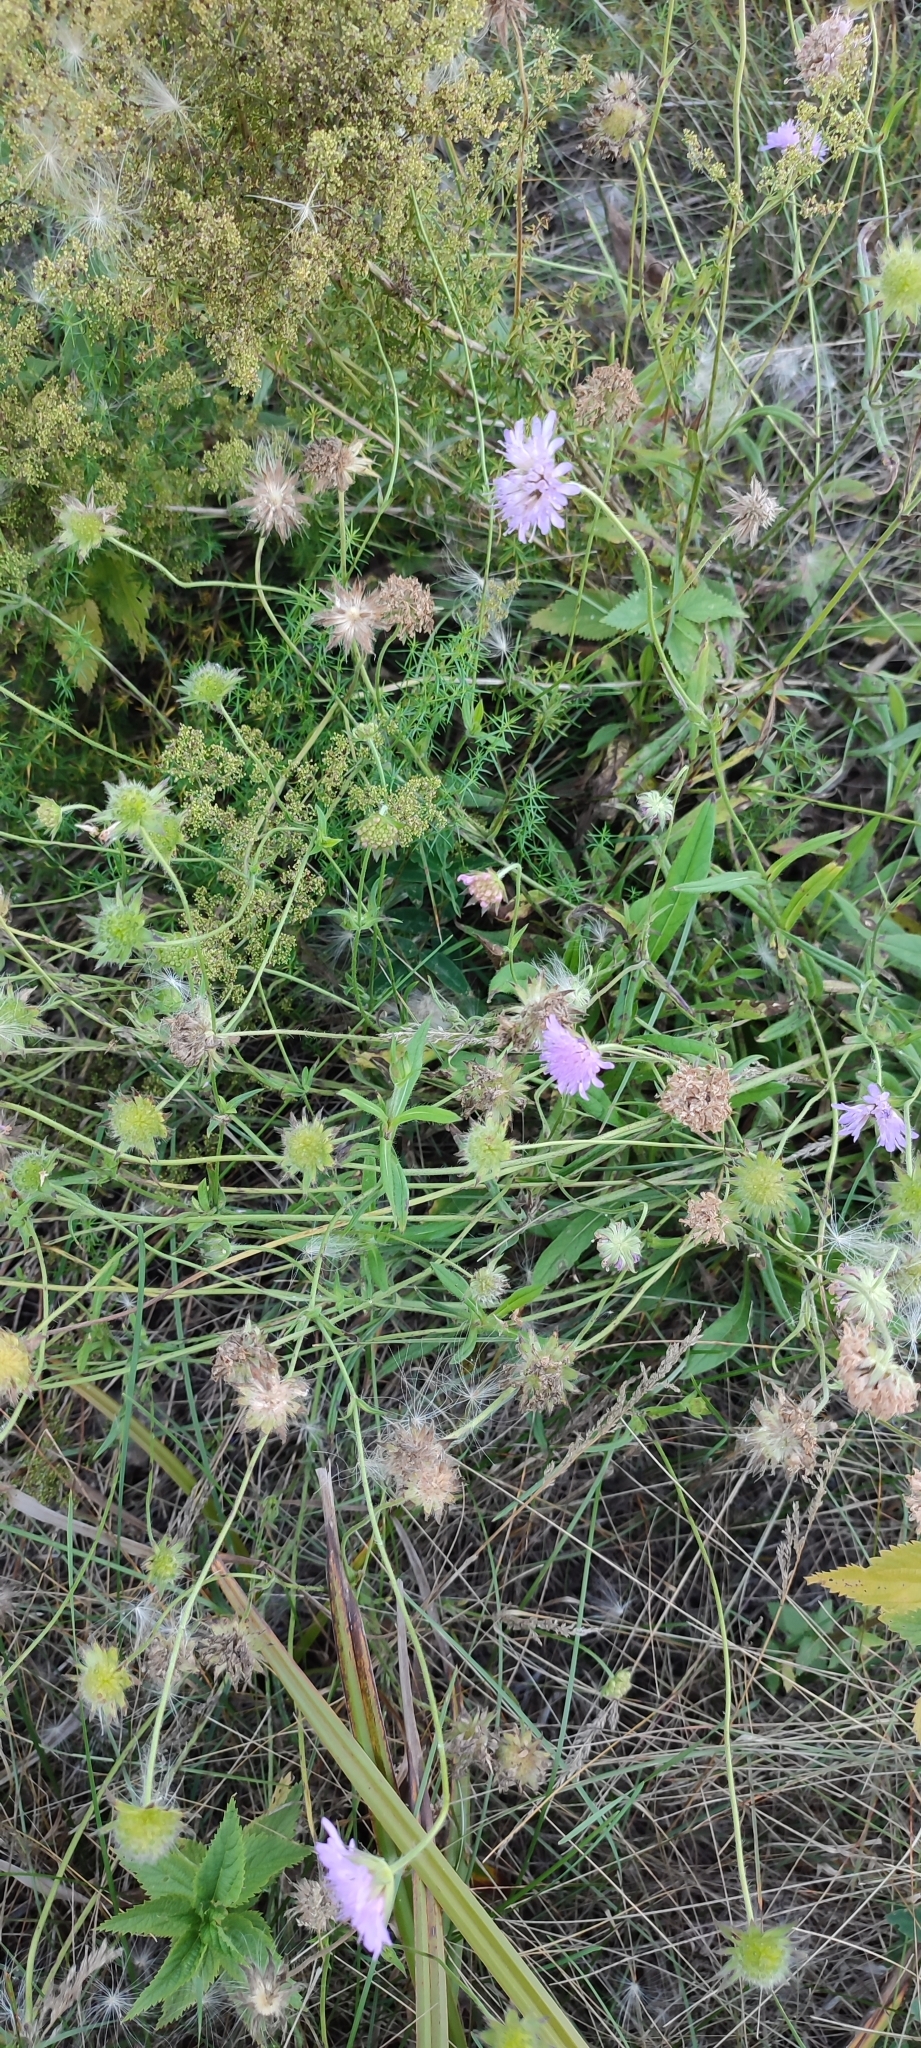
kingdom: Plantae
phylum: Tracheophyta
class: Magnoliopsida
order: Dipsacales
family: Caprifoliaceae
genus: Knautia
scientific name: Knautia arvensis
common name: Field scabiosa
